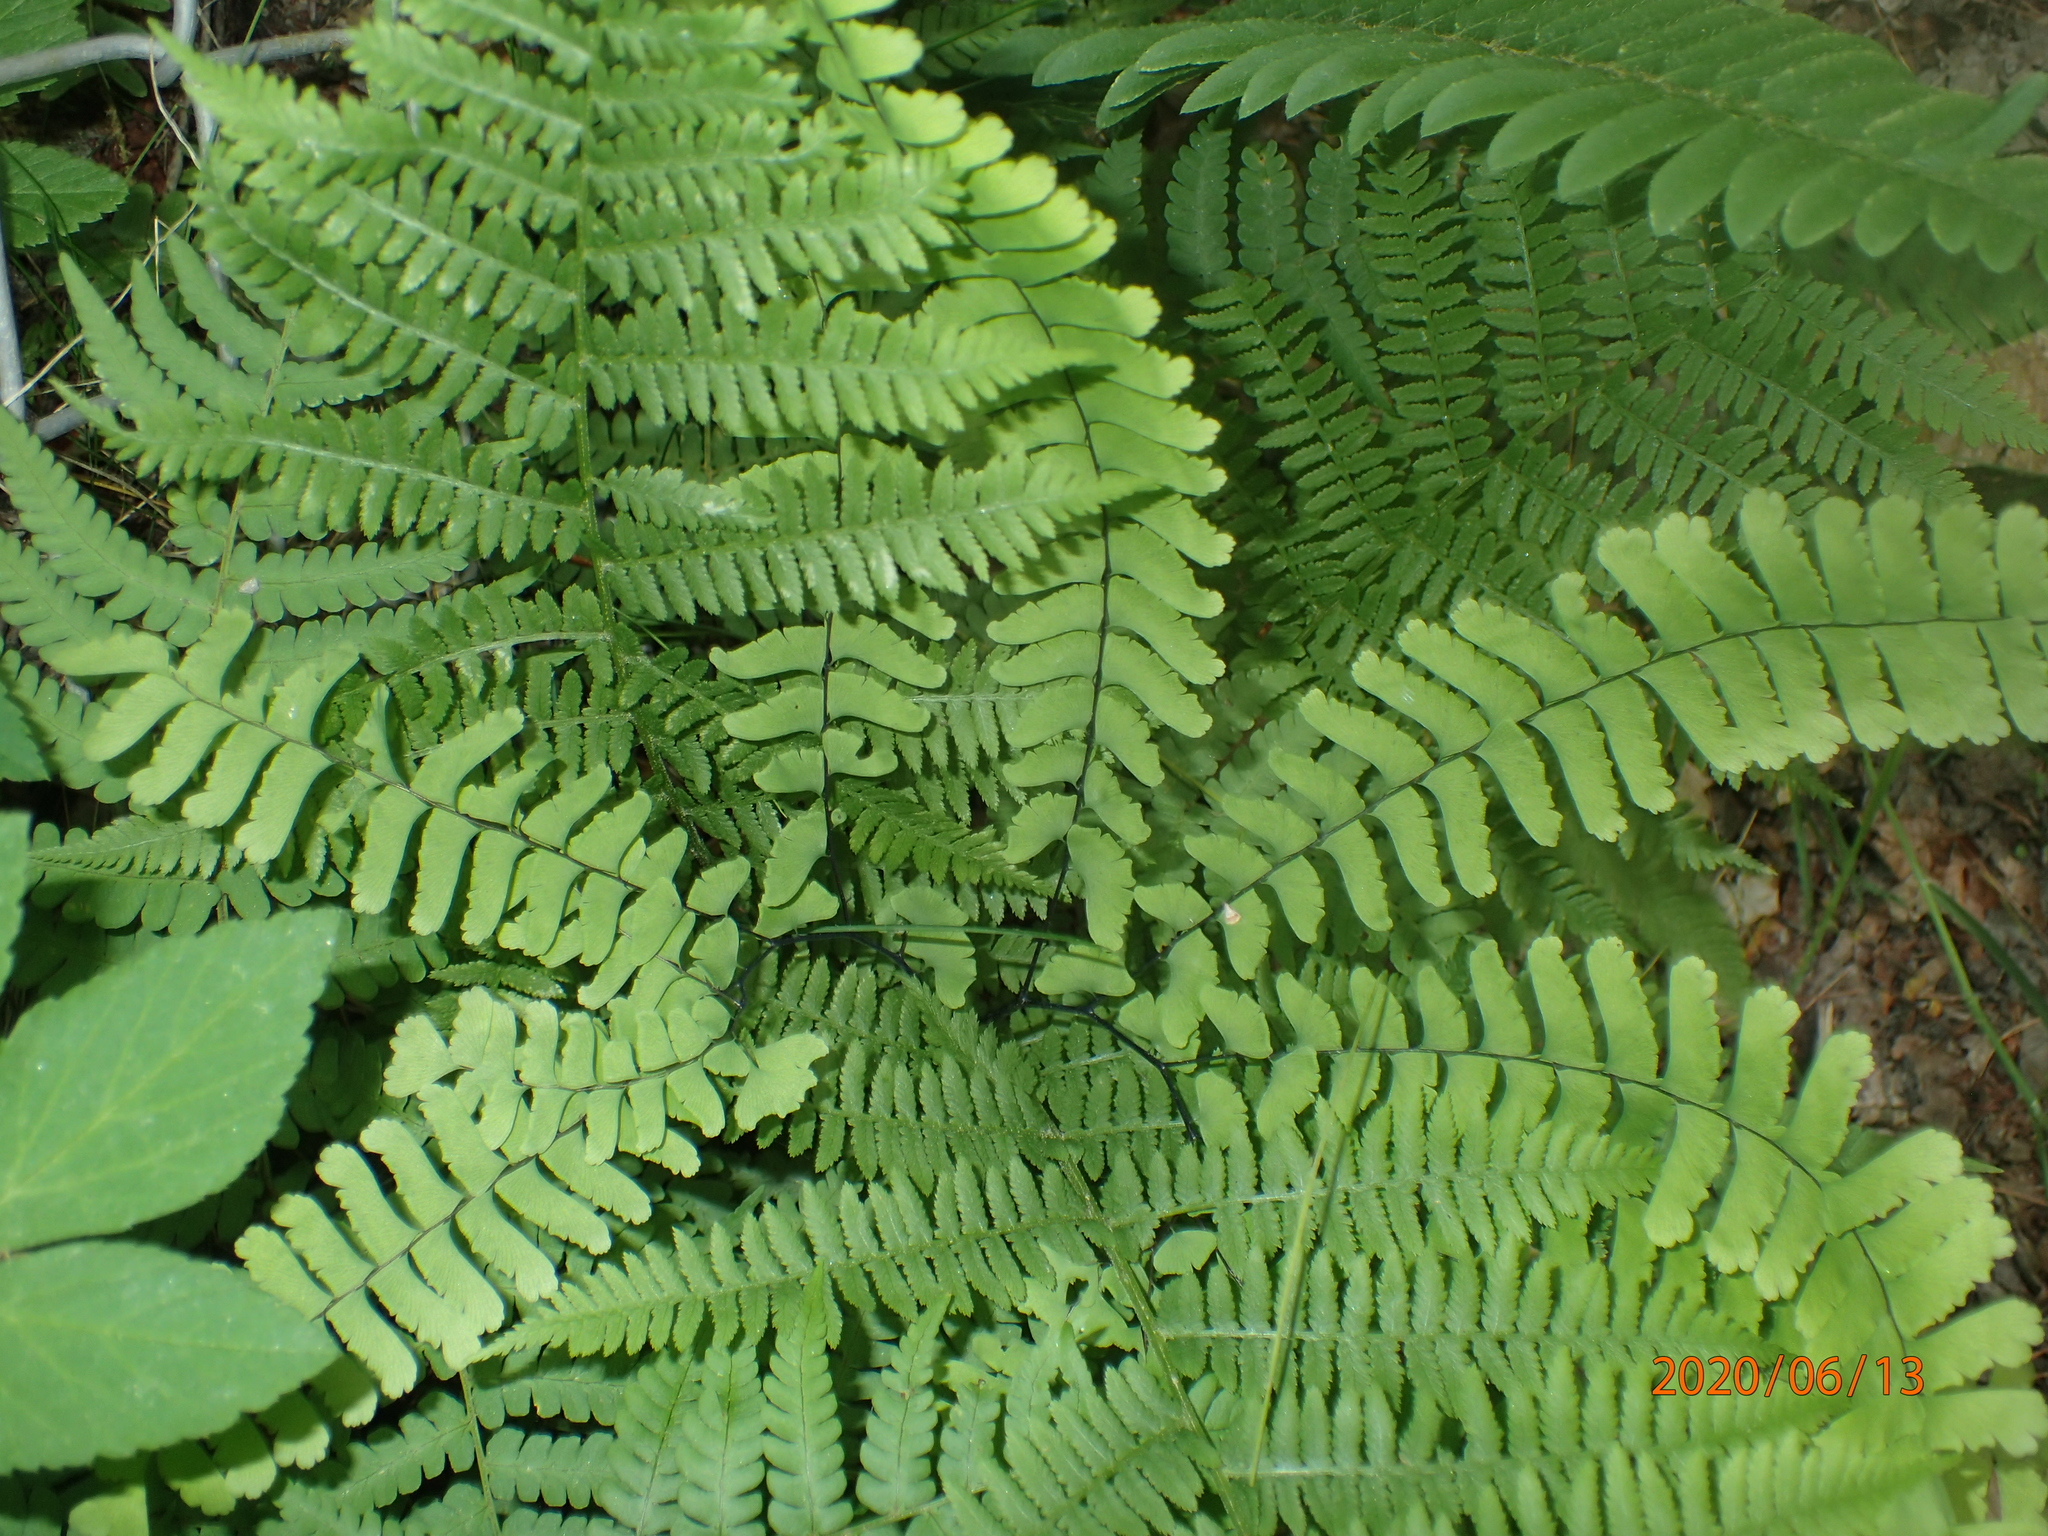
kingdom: Plantae
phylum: Tracheophyta
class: Polypodiopsida
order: Polypodiales
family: Pteridaceae
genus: Adiantum
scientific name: Adiantum pedatum
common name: Five-finger fern
